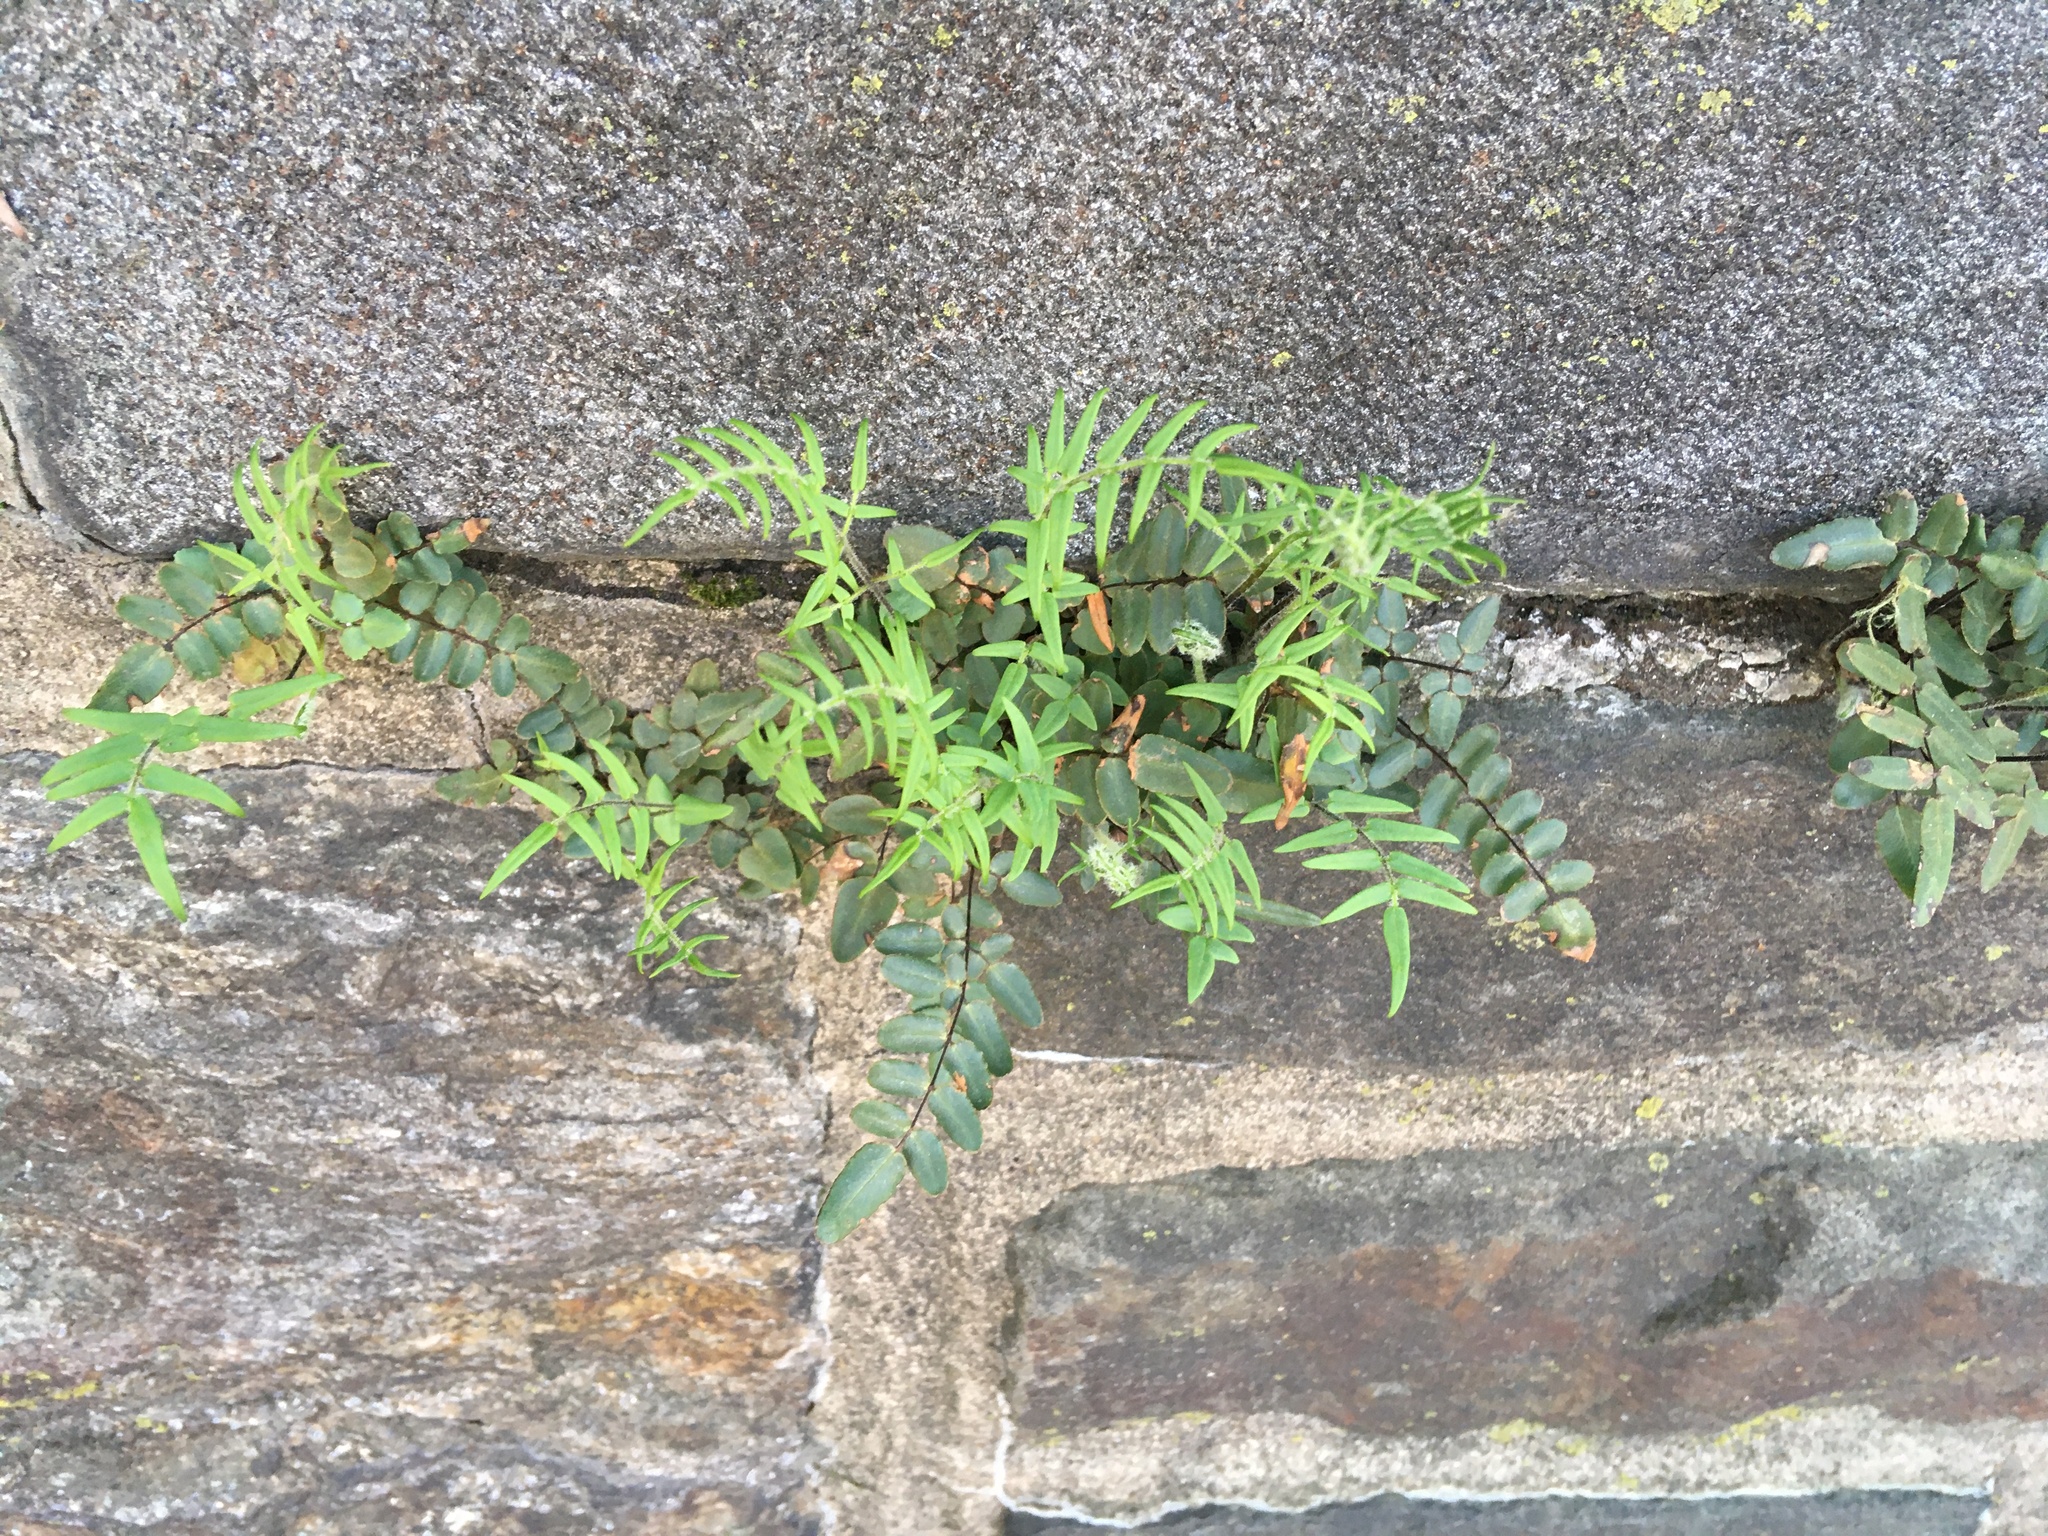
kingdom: Plantae
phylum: Tracheophyta
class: Polypodiopsida
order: Polypodiales
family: Pteridaceae
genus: Pellaea
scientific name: Pellaea atropurpurea
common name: Hairy cliffbrake
